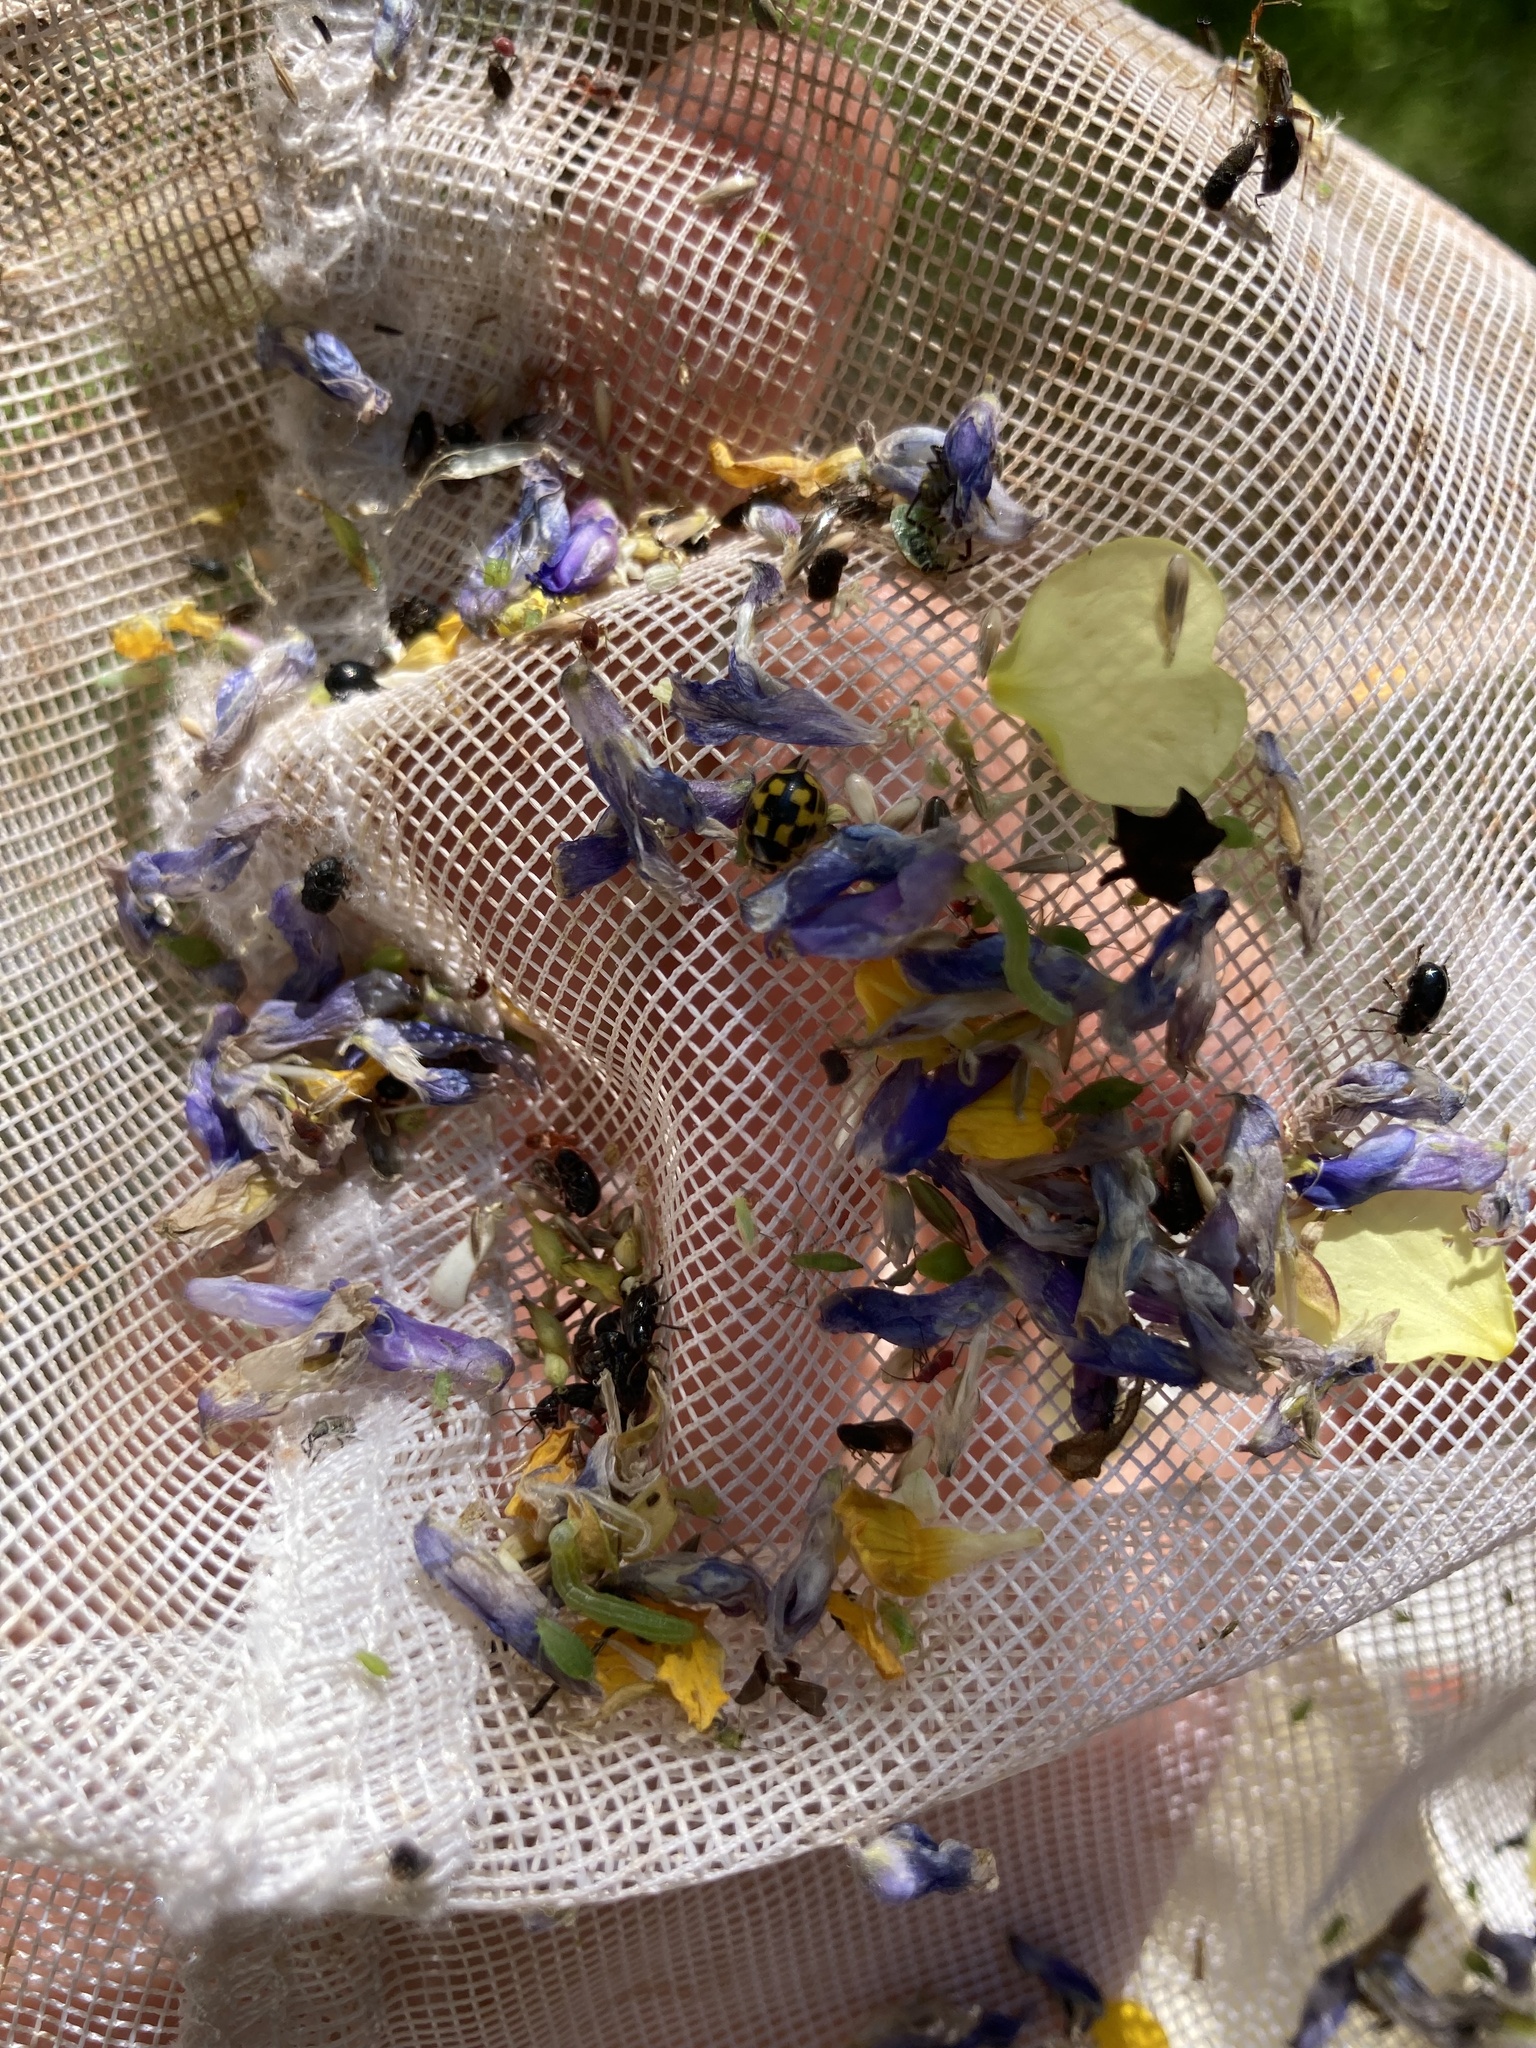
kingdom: Animalia
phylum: Arthropoda
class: Insecta
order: Coleoptera
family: Coccinellidae
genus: Propylaea
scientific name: Propylaea quatuordecimpunctata
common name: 14-spotted ladybird beetle
